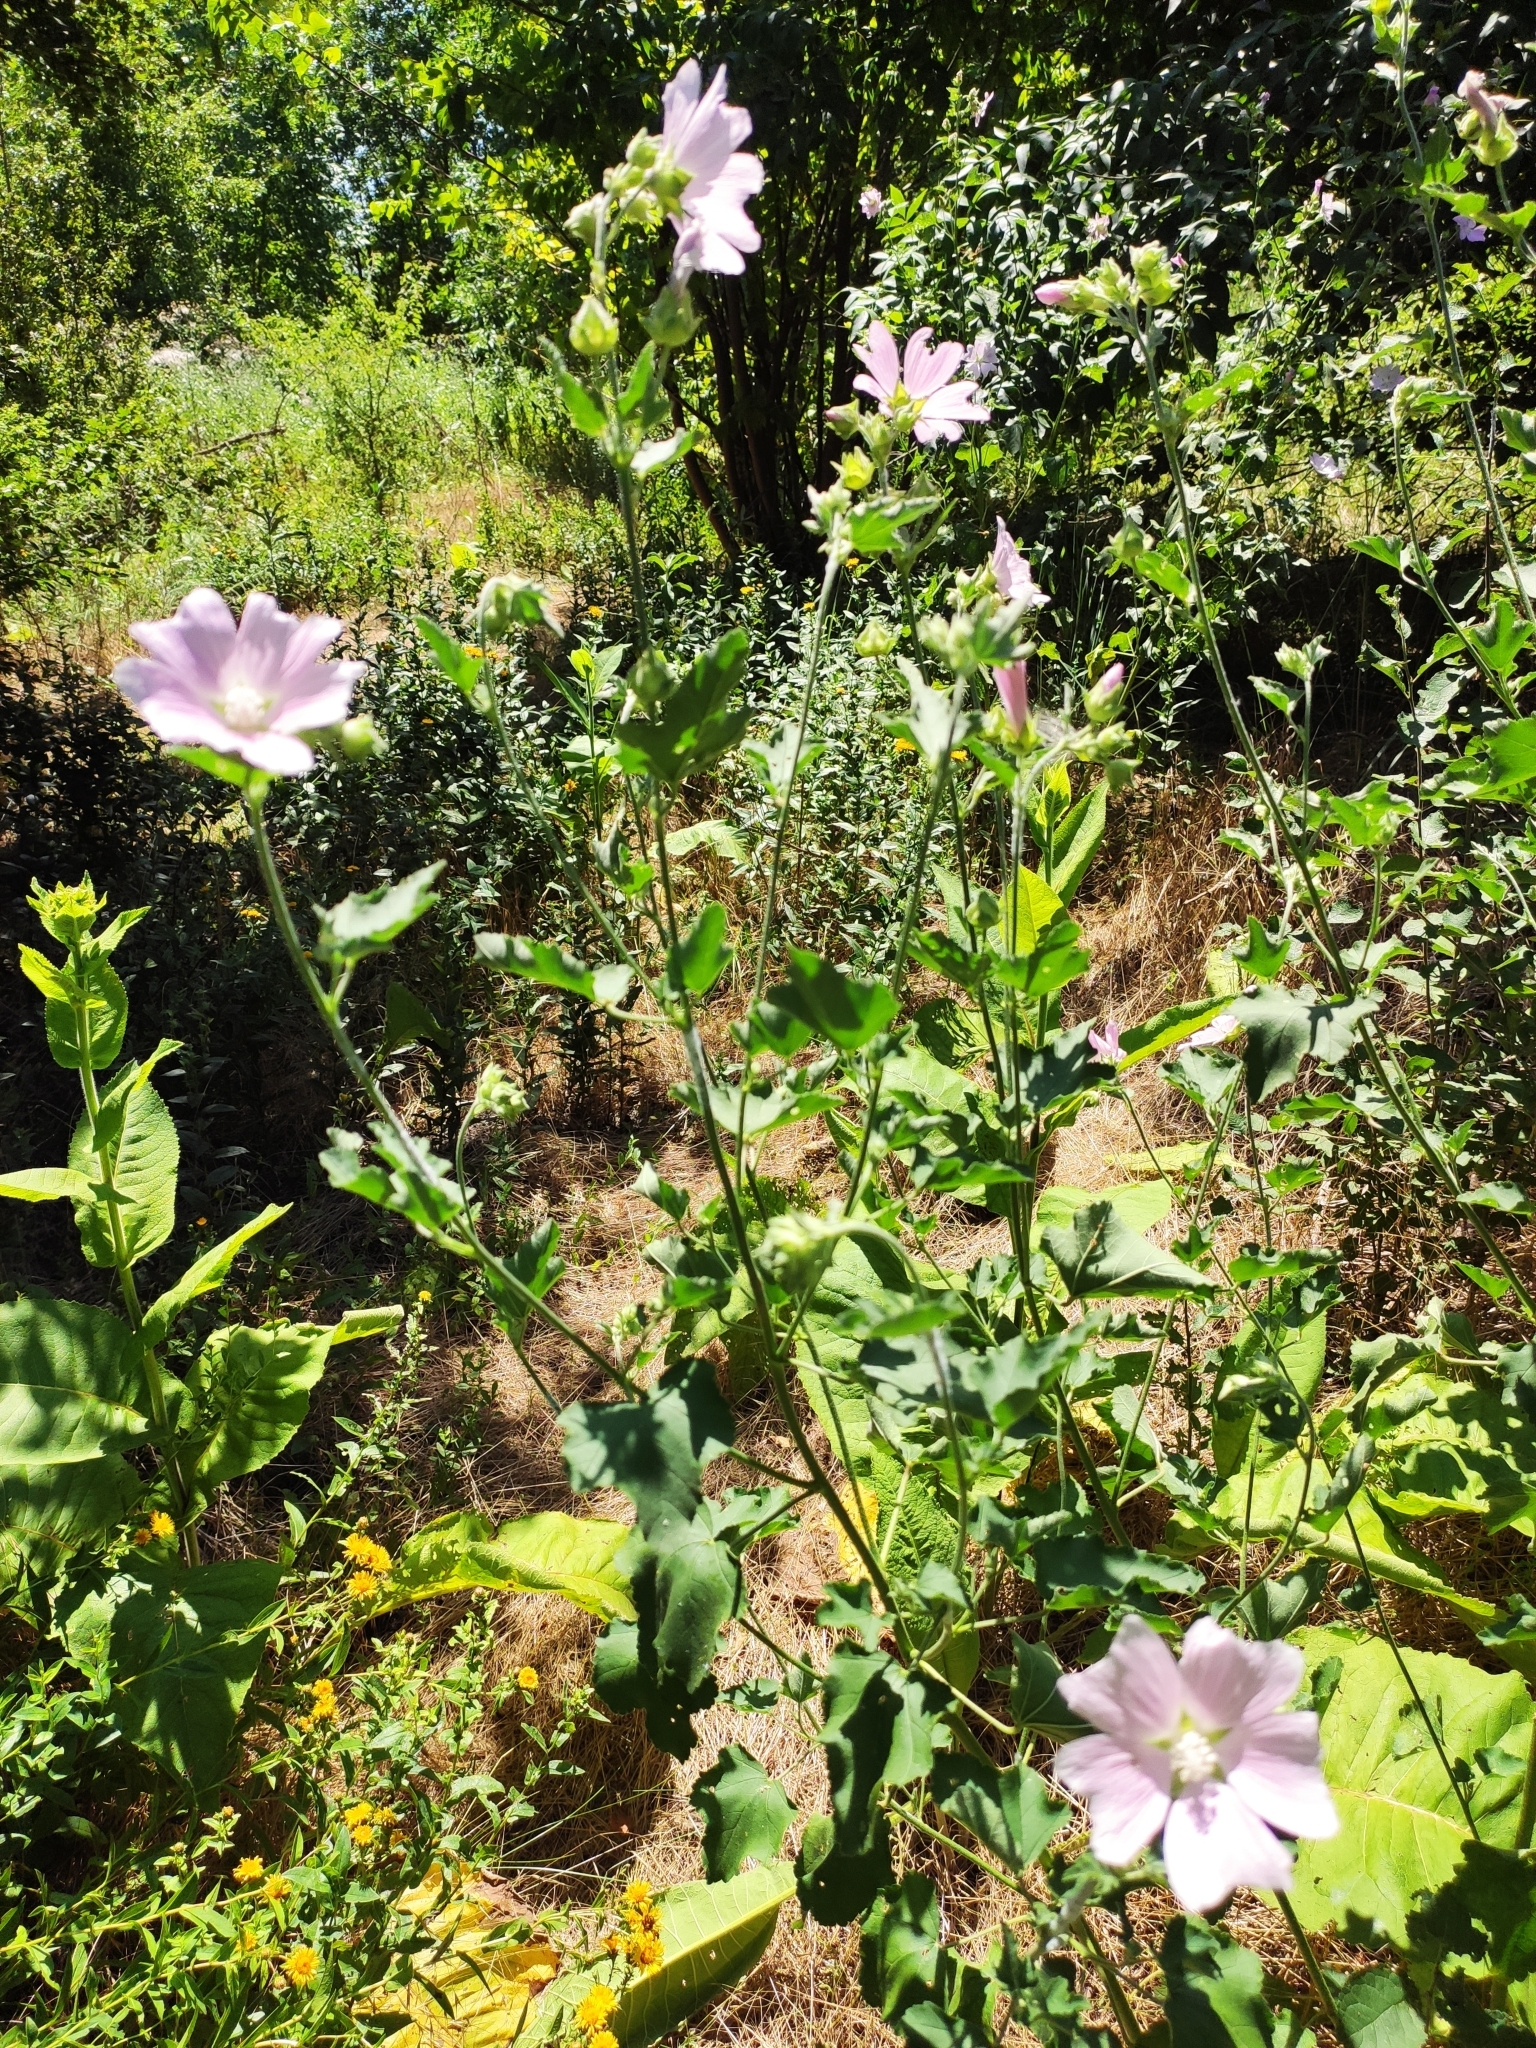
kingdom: Plantae
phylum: Tracheophyta
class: Magnoliopsida
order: Malvales
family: Malvaceae
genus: Malva
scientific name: Malva thuringiaca
